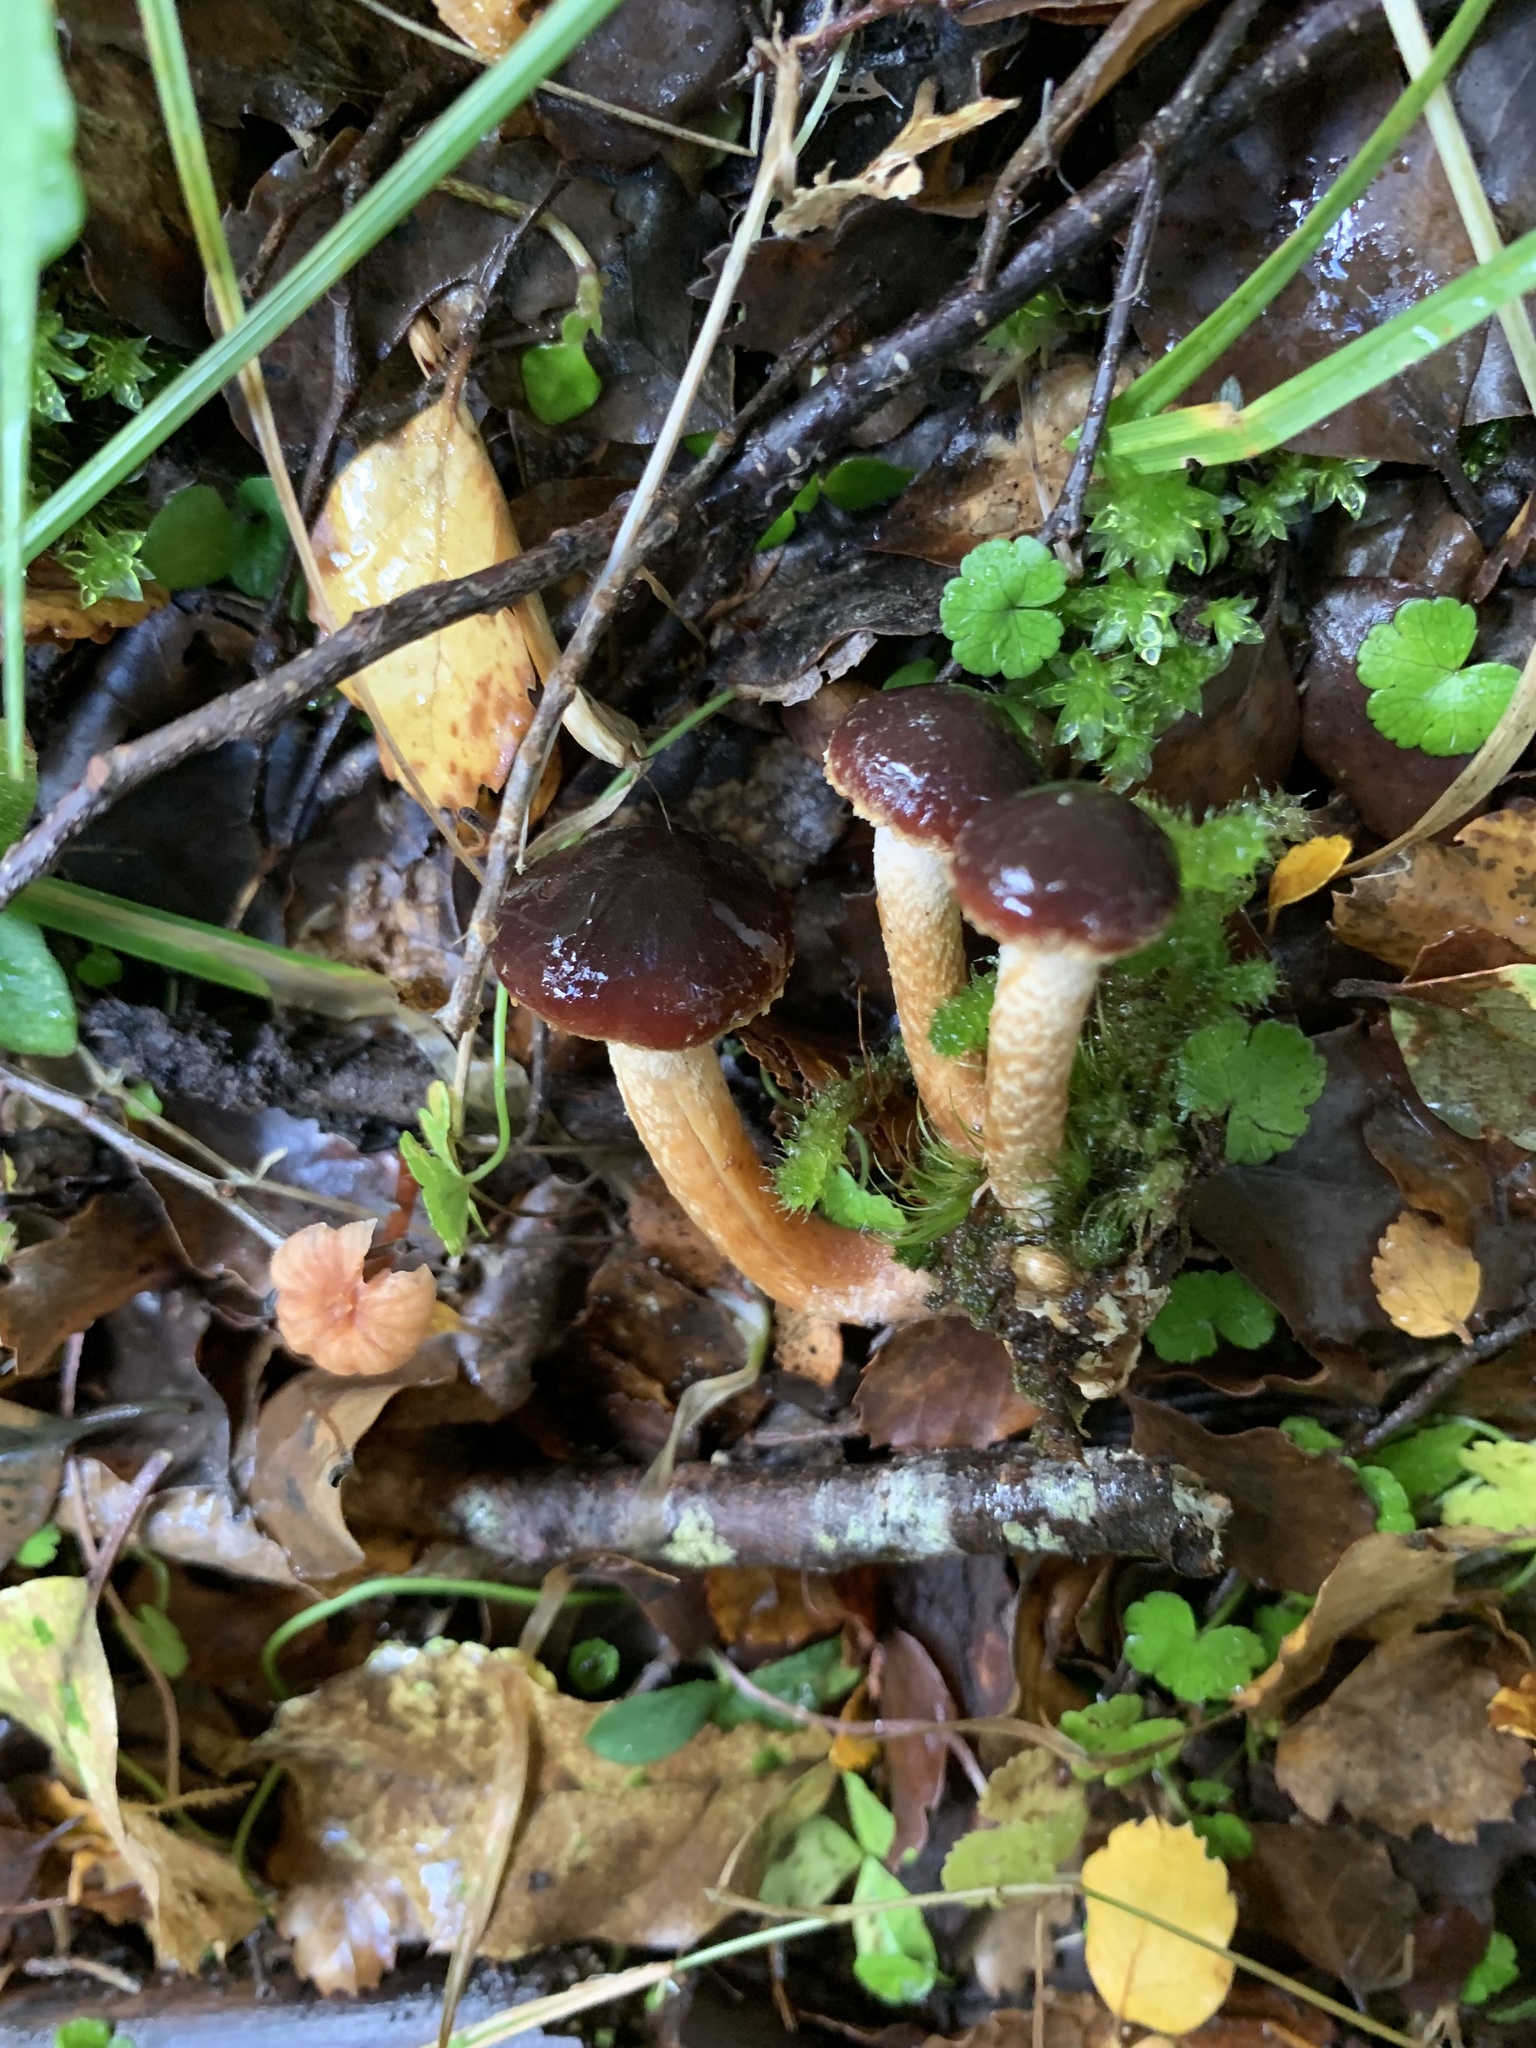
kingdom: Fungi
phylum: Basidiomycota
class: Agaricomycetes
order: Agaricales
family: Strophariaceae
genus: Hypholoma
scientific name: Hypholoma brunneum
